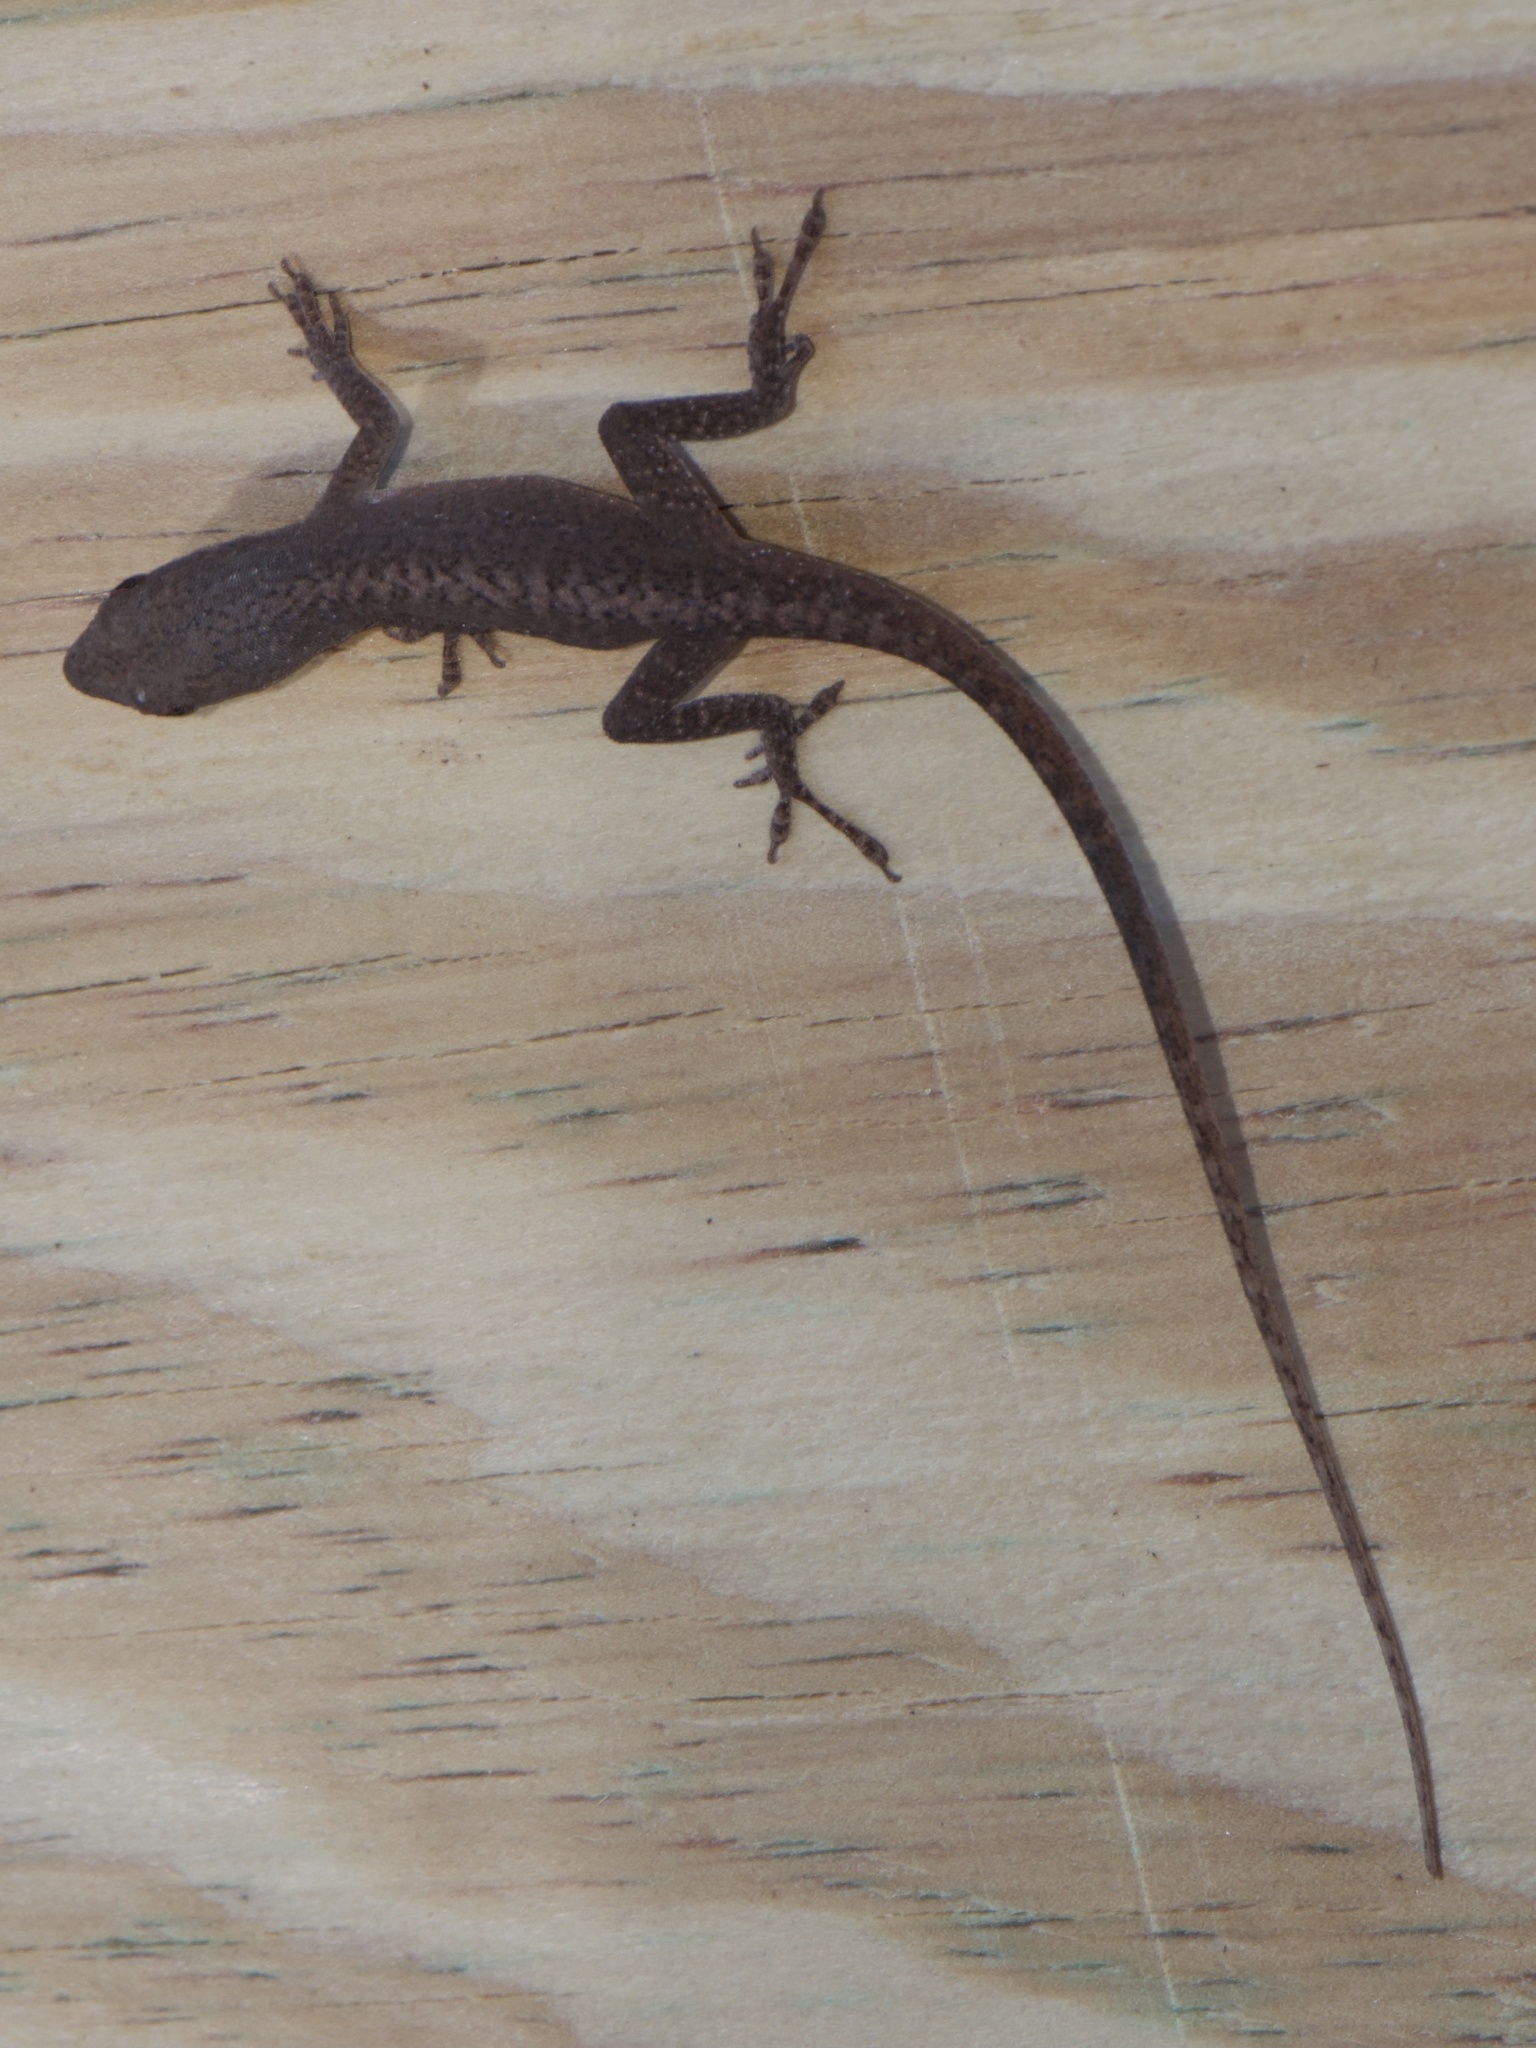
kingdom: Animalia
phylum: Chordata
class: Squamata
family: Dactyloidae
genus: Anolis
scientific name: Anolis carolinensis
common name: Green anole
